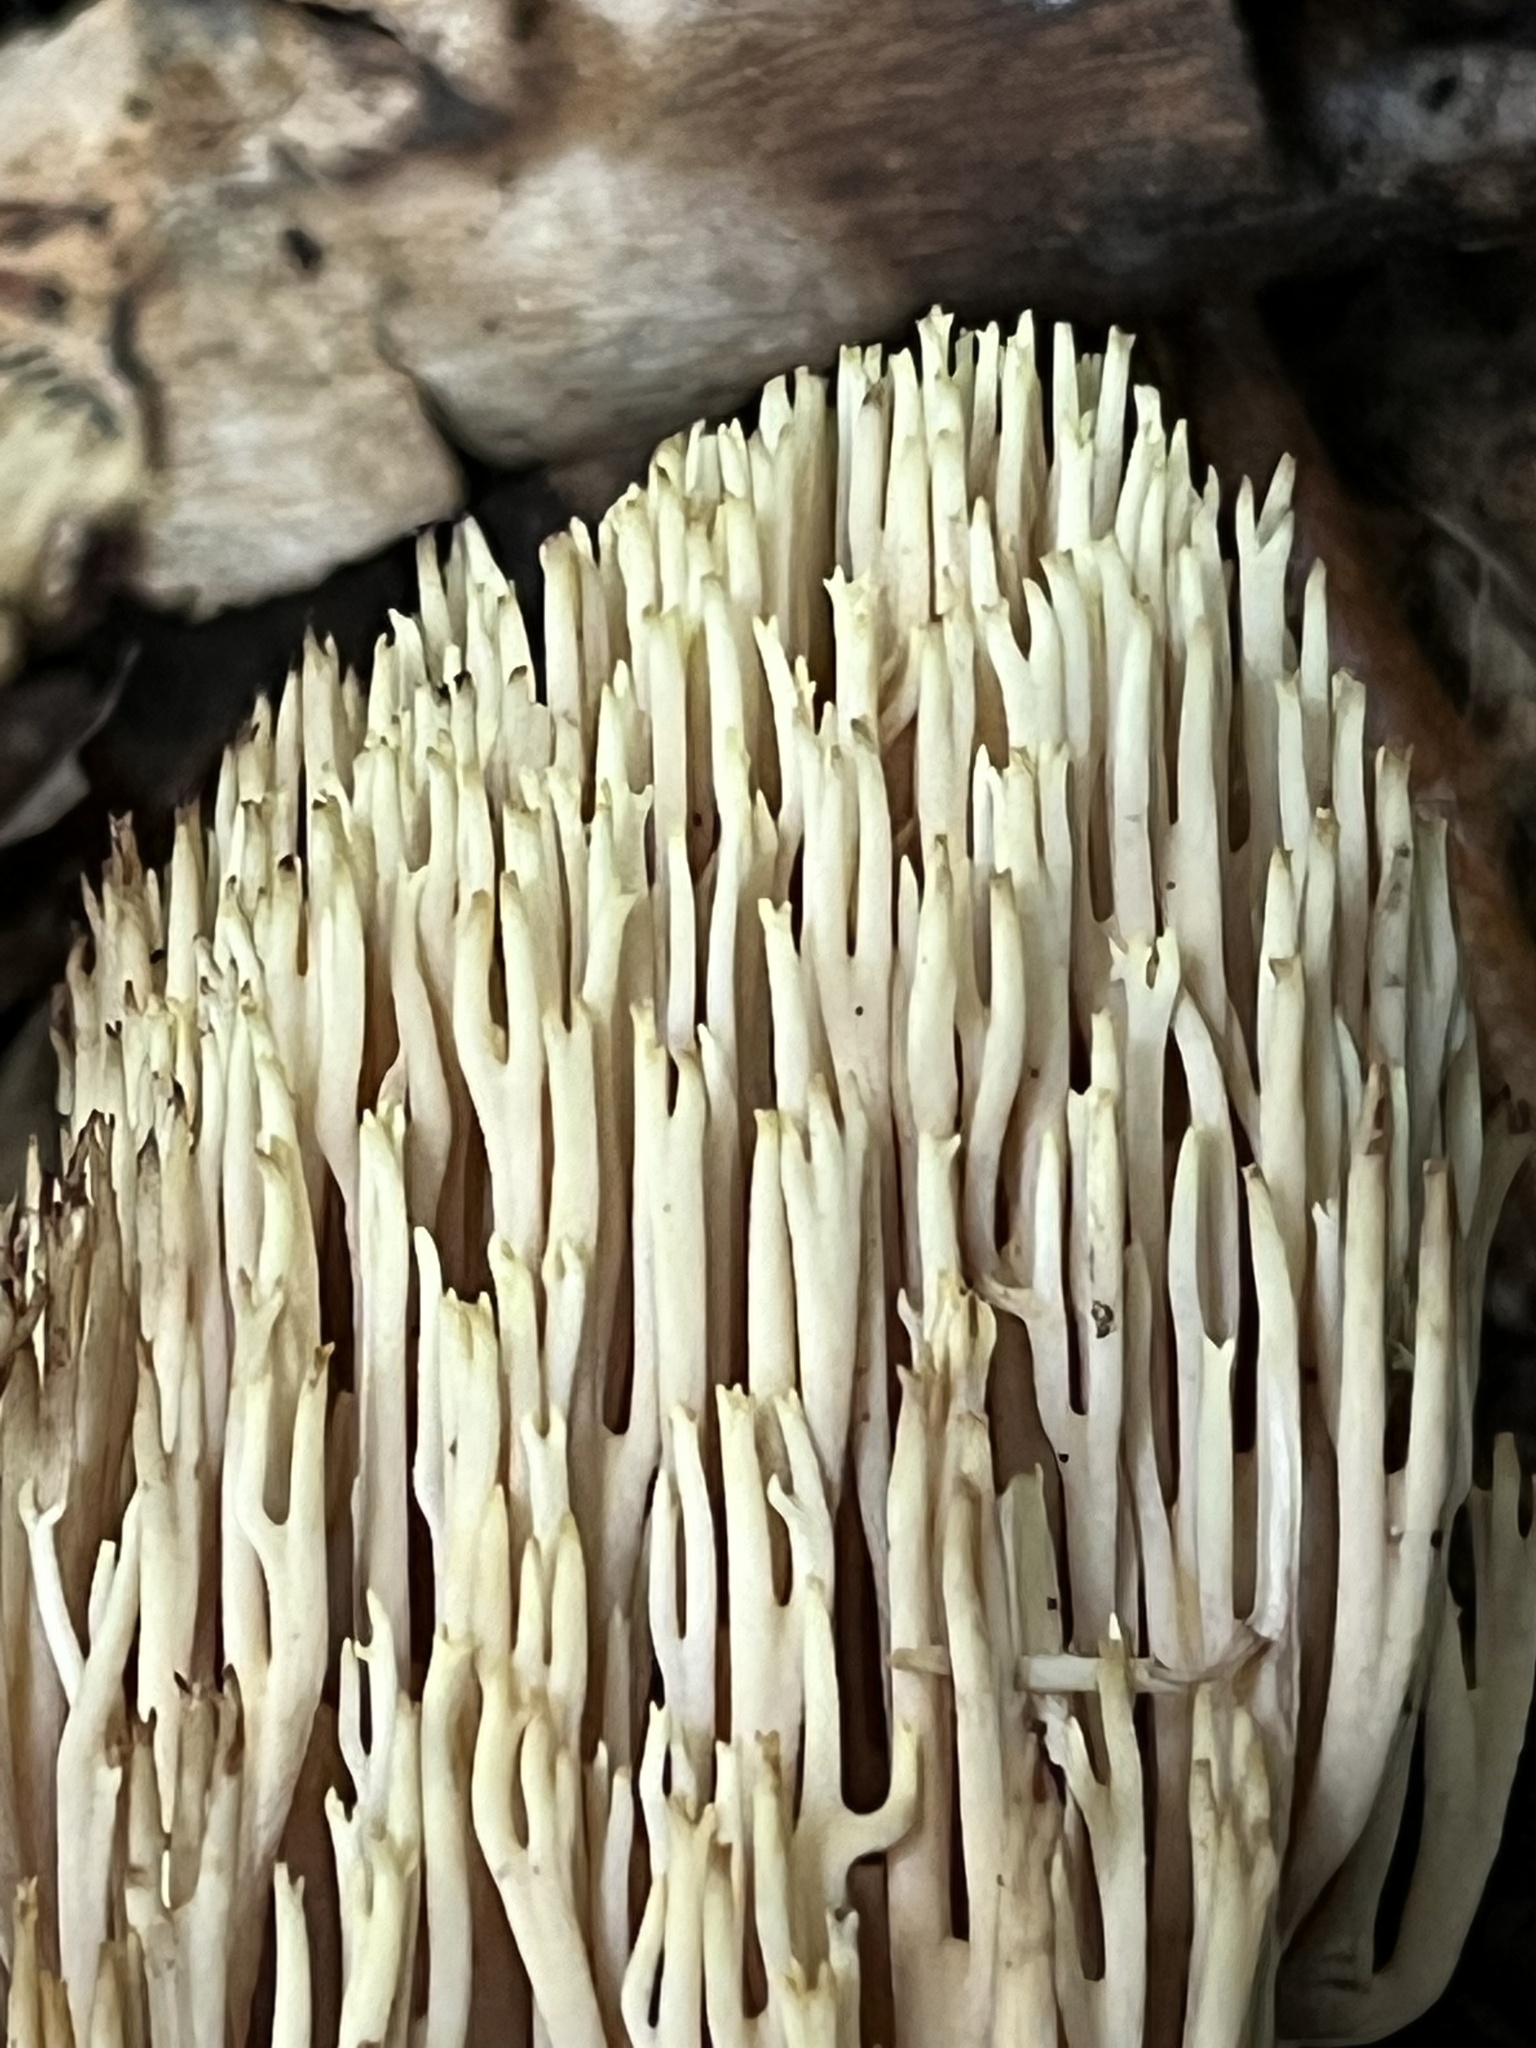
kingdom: Fungi
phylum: Basidiomycota
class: Agaricomycetes
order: Gomphales
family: Gomphaceae
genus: Ramaria
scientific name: Ramaria stricta
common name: Upright coral
